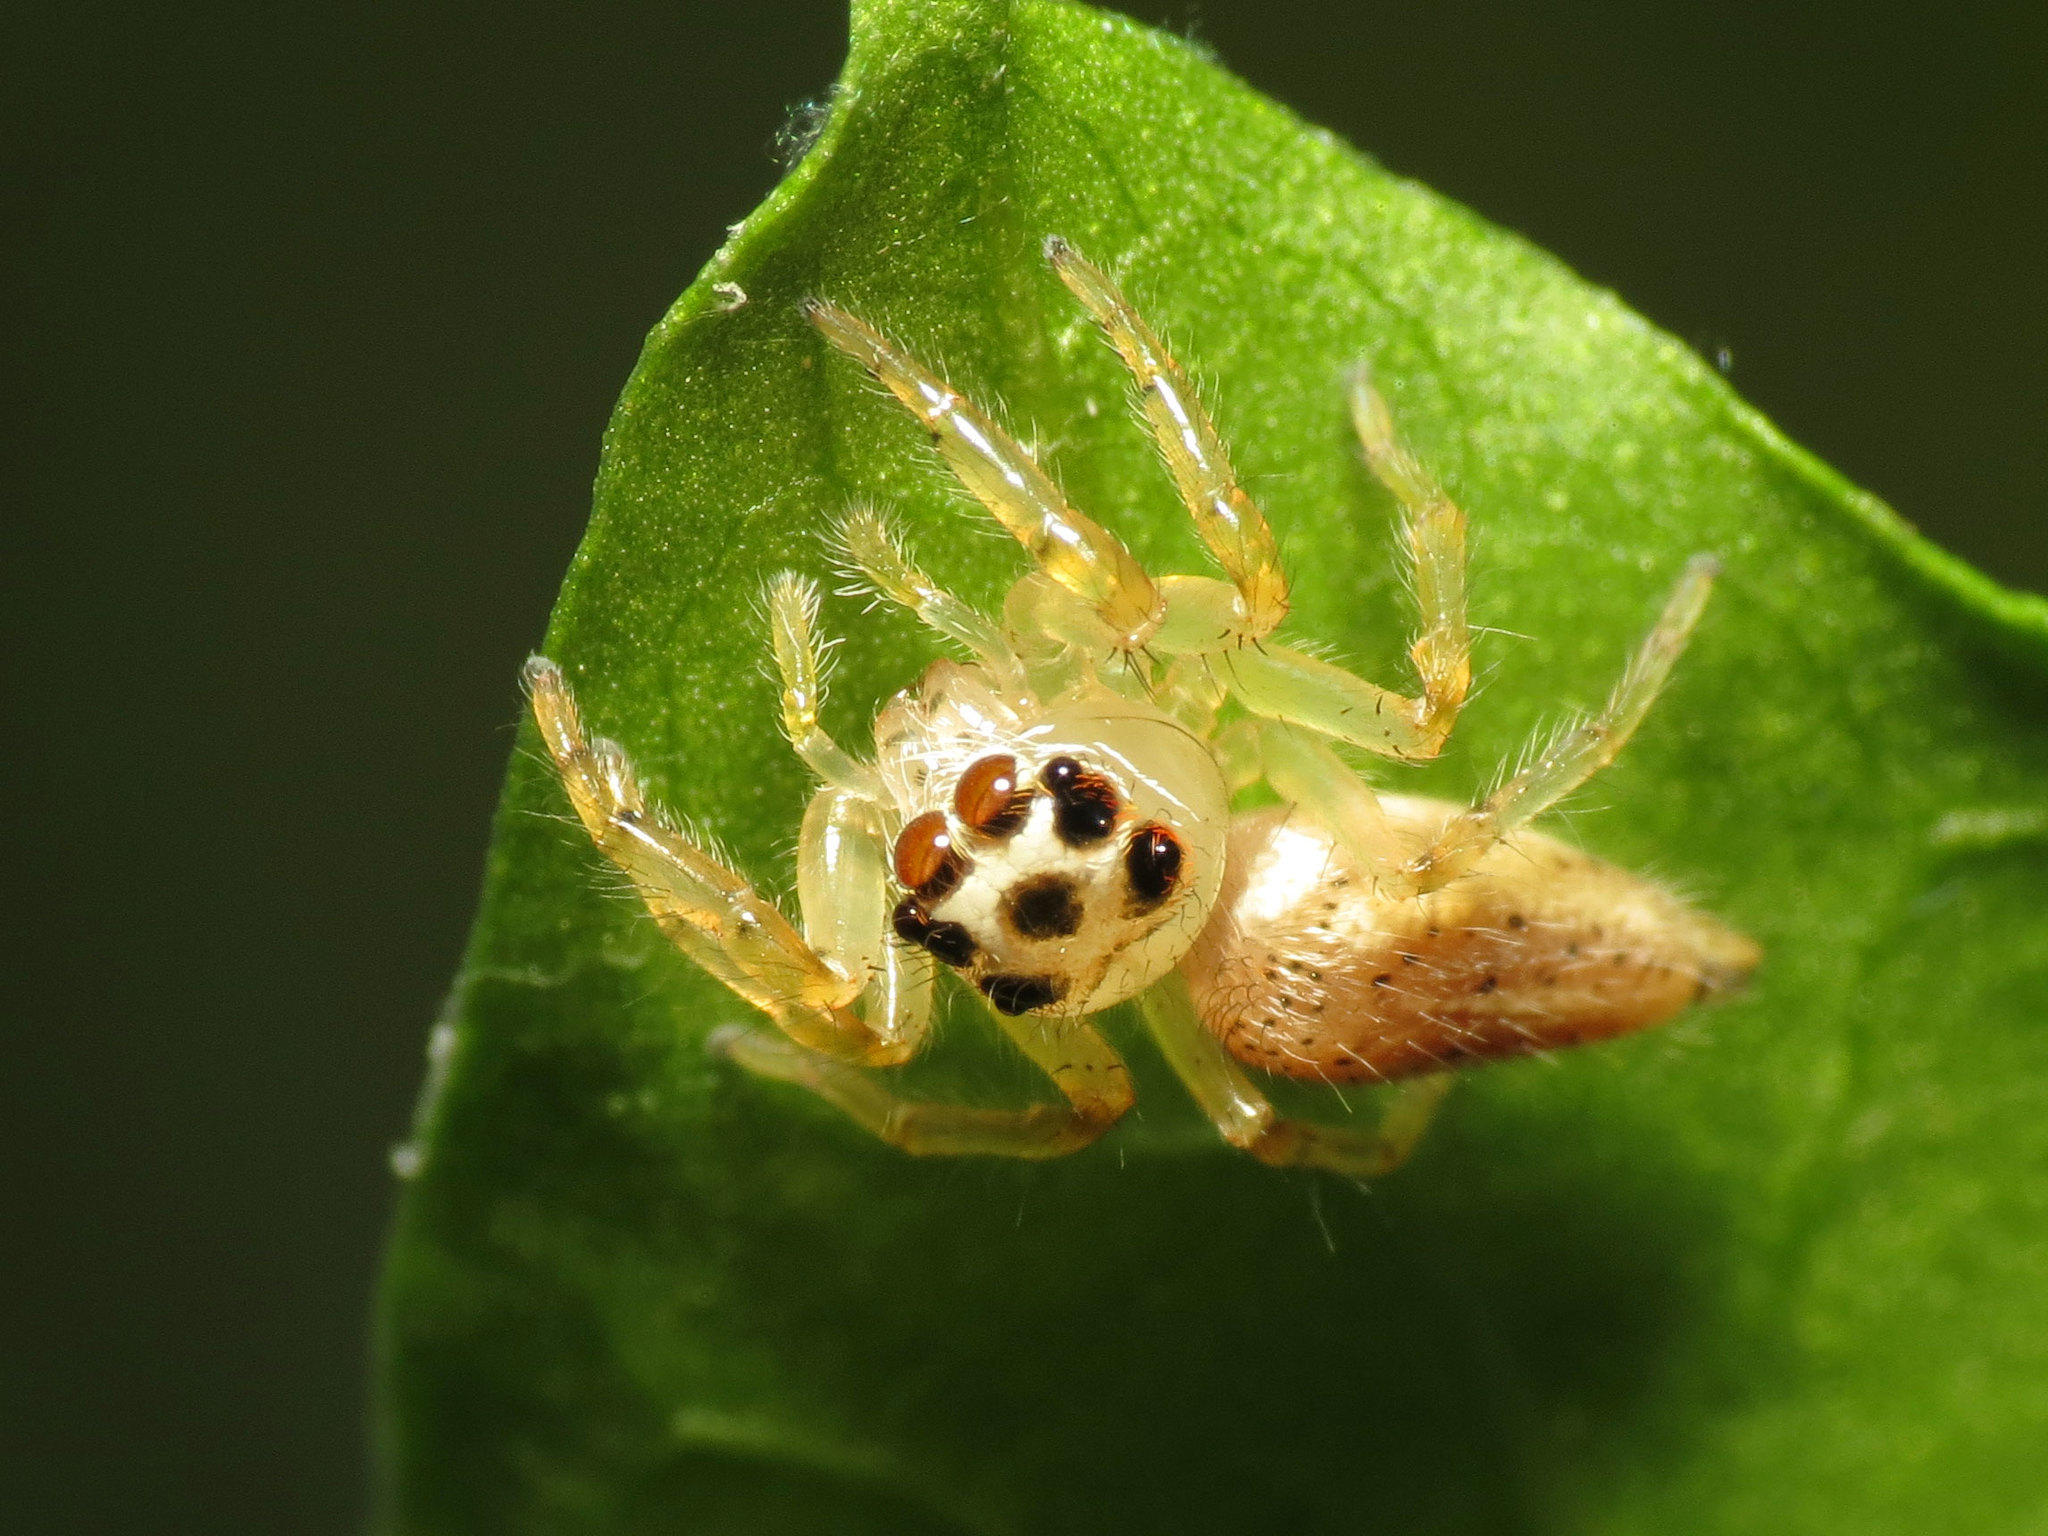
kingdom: Animalia
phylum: Arthropoda
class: Arachnida
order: Araneae
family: Salticidae
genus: Colonus
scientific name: Colonus sylvanus
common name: Jumping spiders
